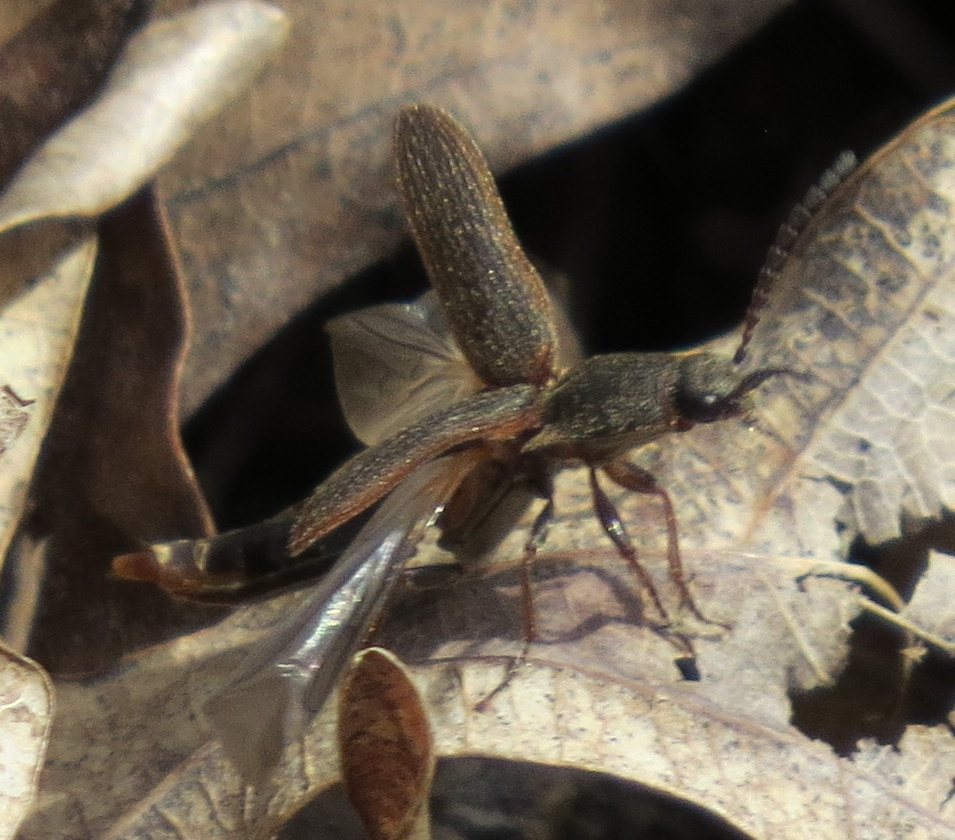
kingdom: Animalia
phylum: Arthropoda
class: Insecta
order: Coleoptera
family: Elateridae
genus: Sylvanelater
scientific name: Sylvanelater cylindriformis
